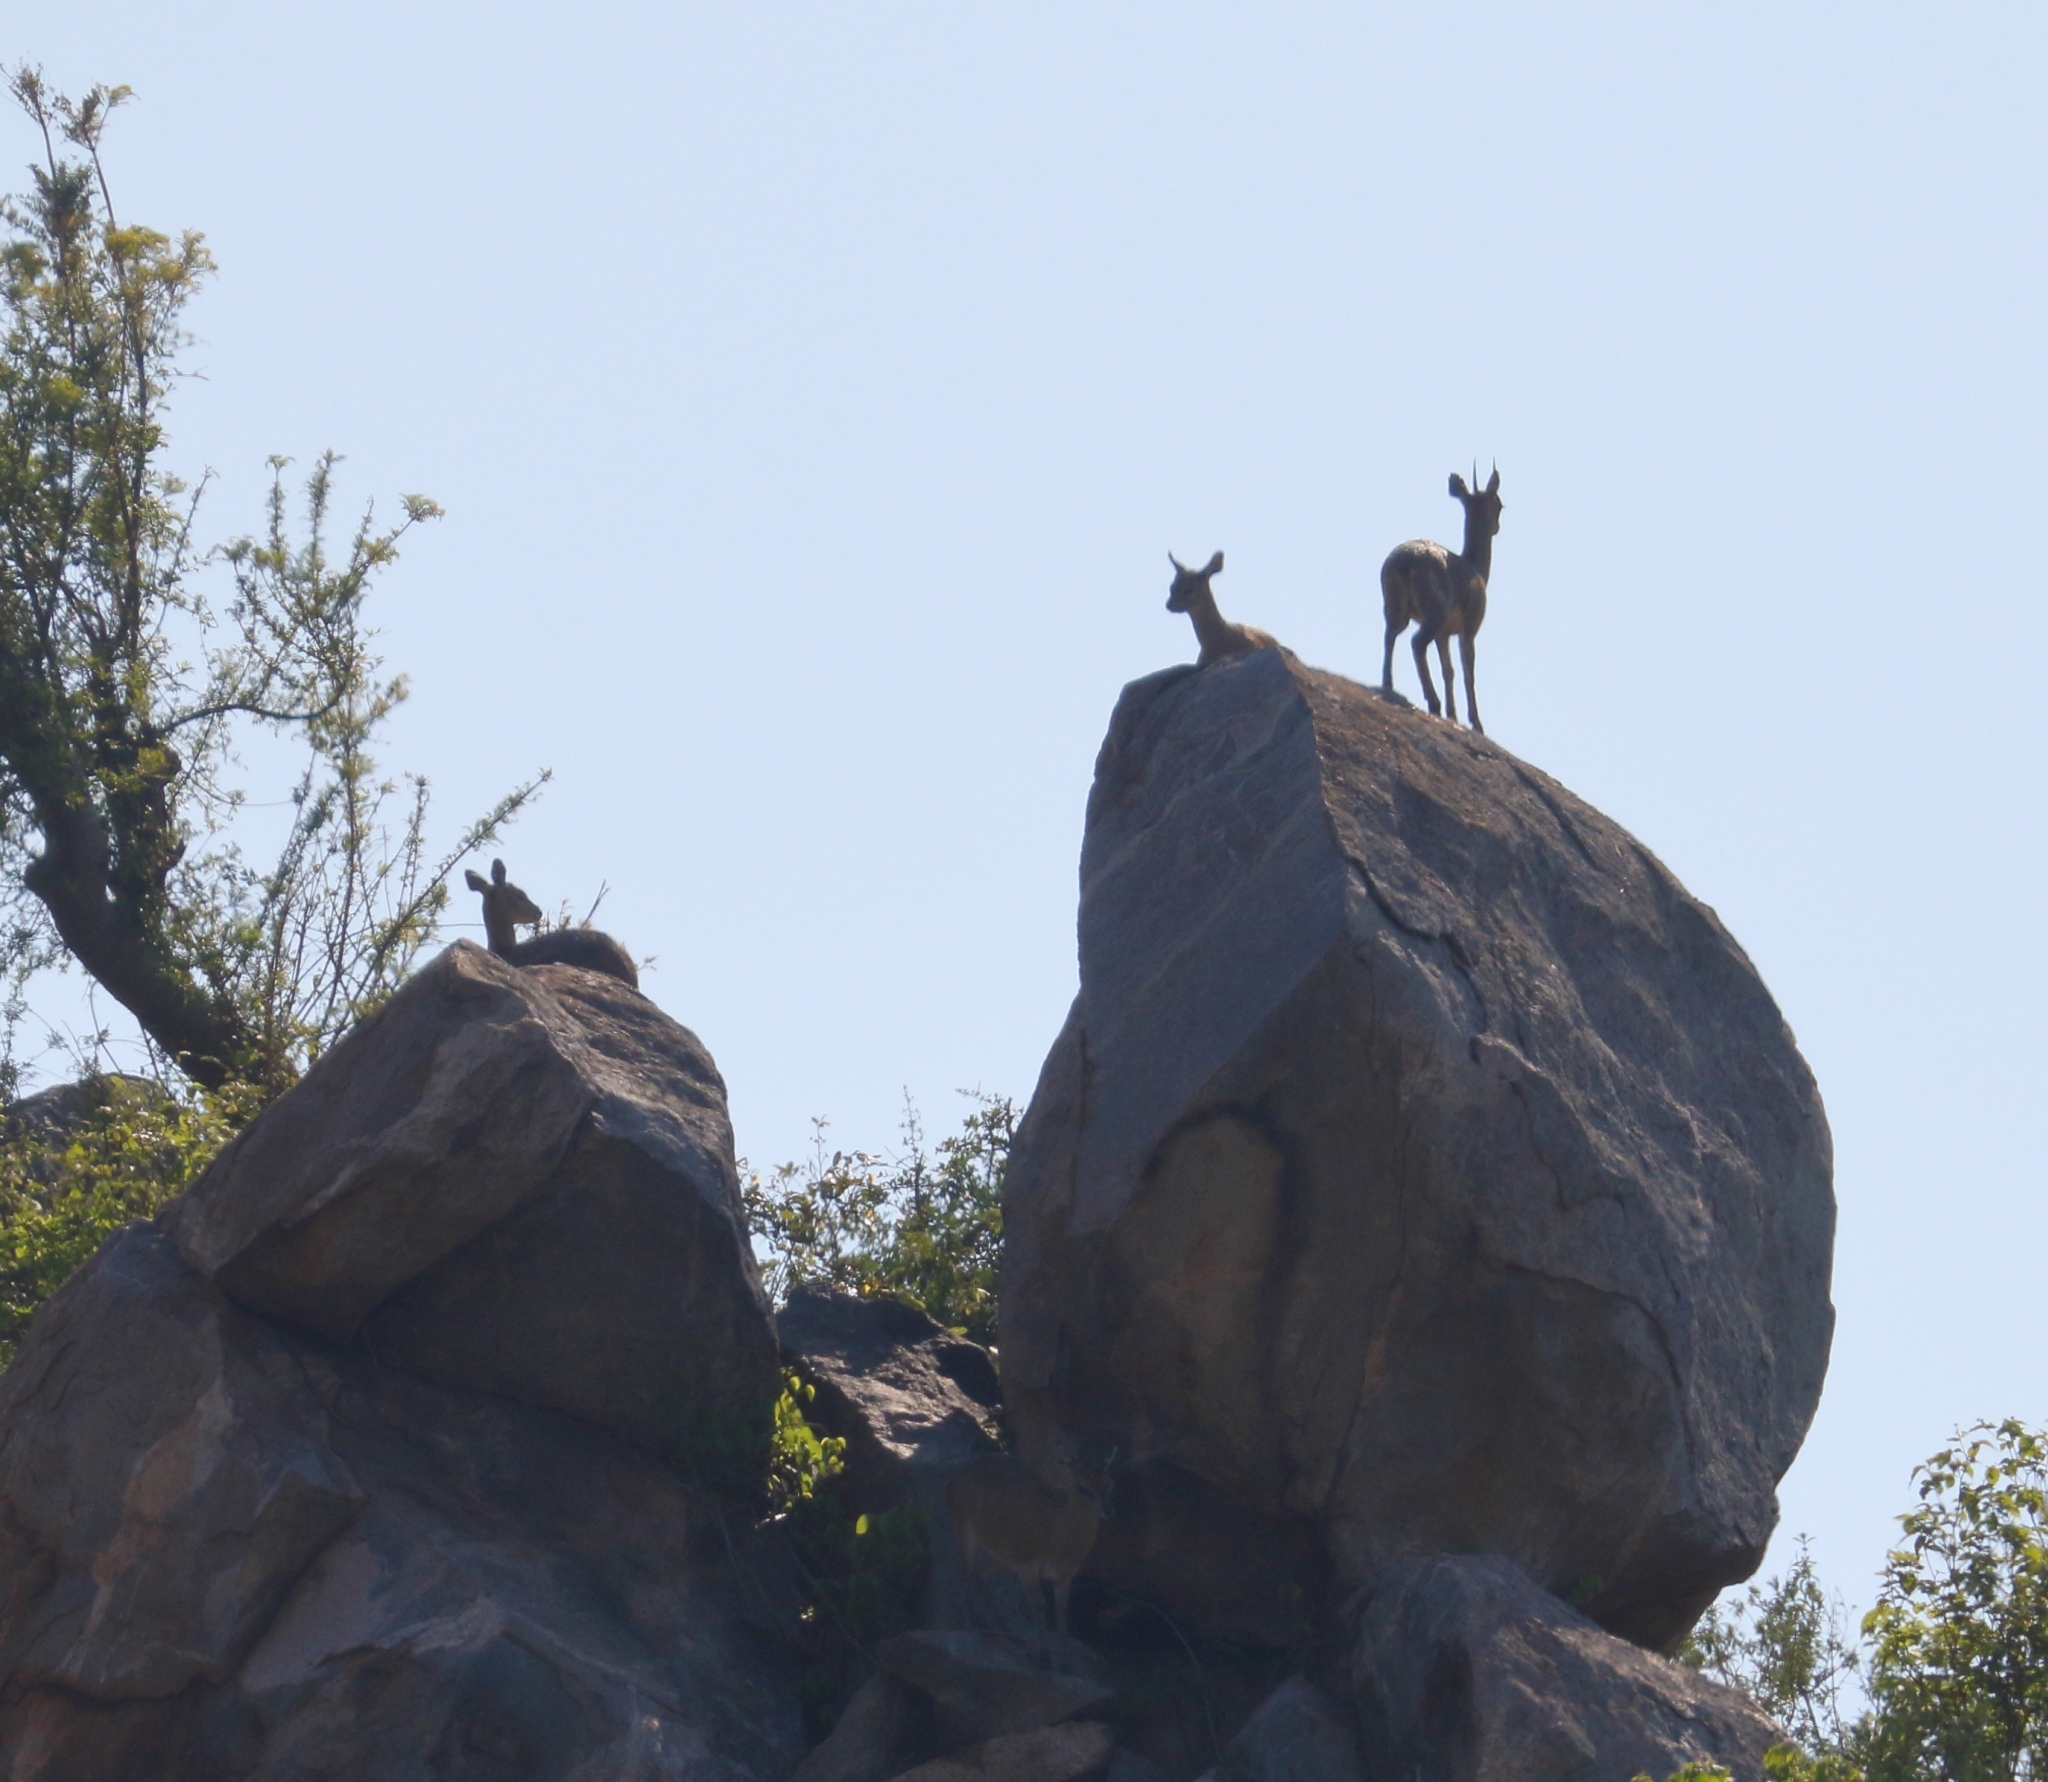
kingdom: Animalia
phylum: Chordata
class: Mammalia
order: Artiodactyla
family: Bovidae
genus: Oreotragus
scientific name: Oreotragus oreotragus
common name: Klipspringer
